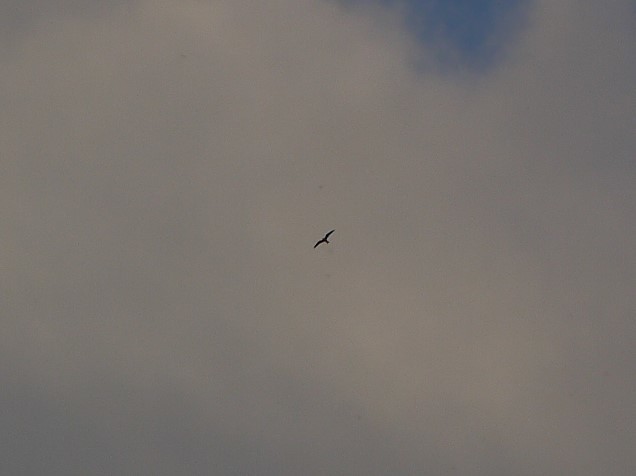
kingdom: Animalia
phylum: Chordata
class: Aves
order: Caprimulgiformes
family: Caprimulgidae
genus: Chordeiles
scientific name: Chordeiles minor
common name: Common nighthawk
